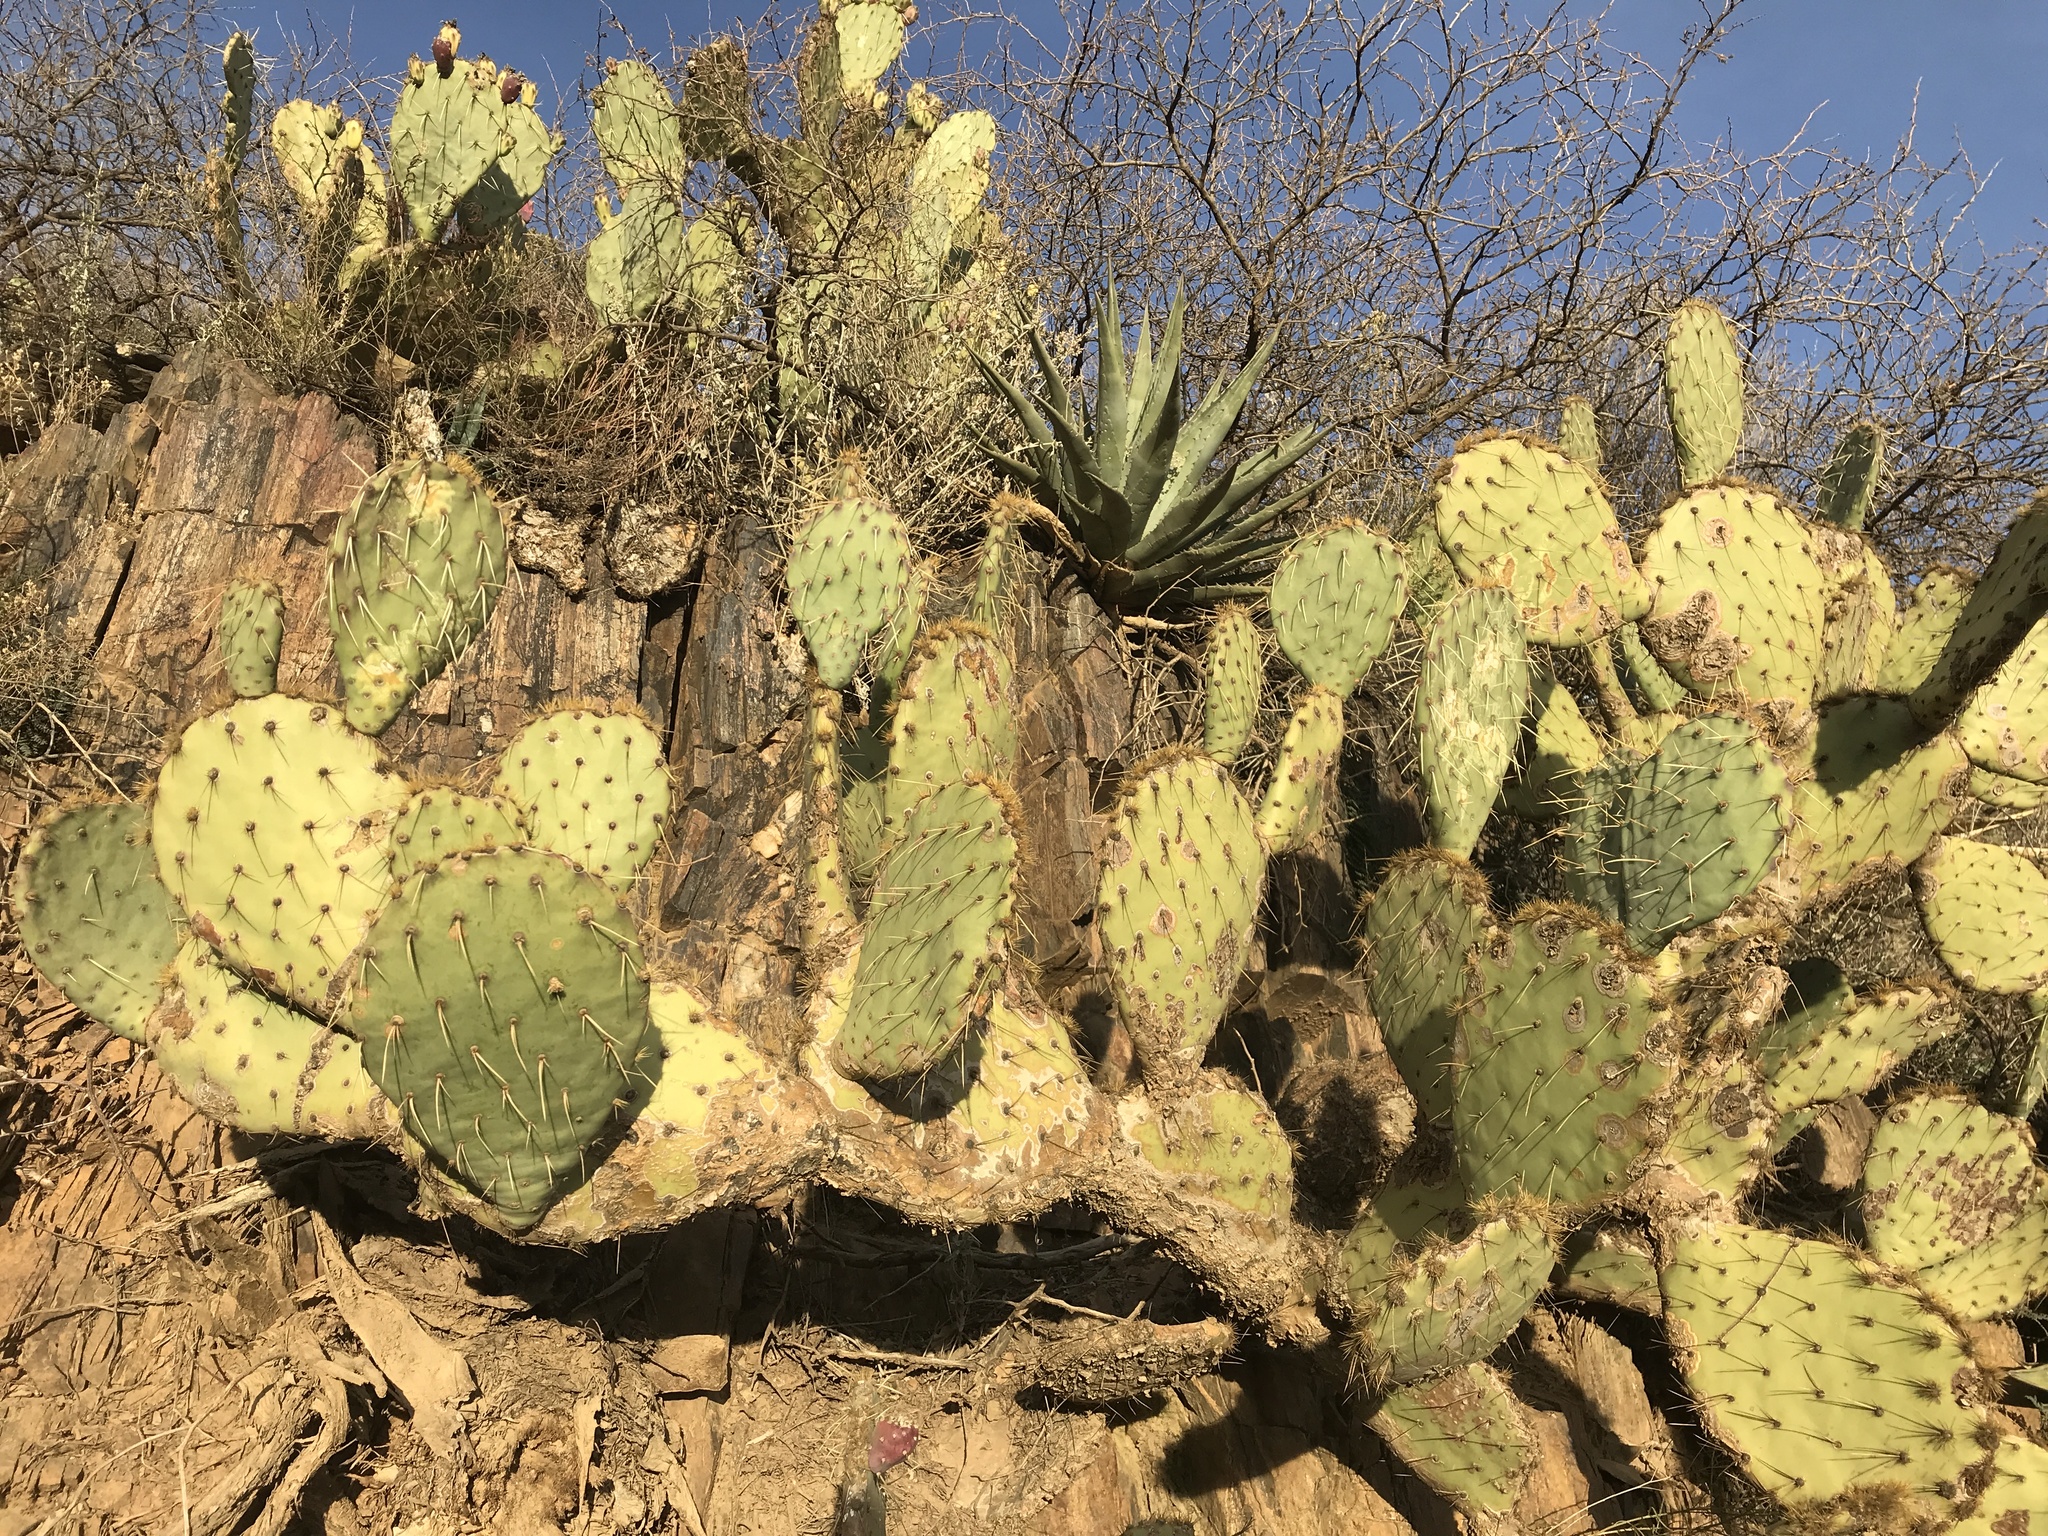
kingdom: Plantae
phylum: Tracheophyta
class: Magnoliopsida
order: Caryophyllales
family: Cactaceae
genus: Opuntia
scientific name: Opuntia engelmannii
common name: Cactus-apple
